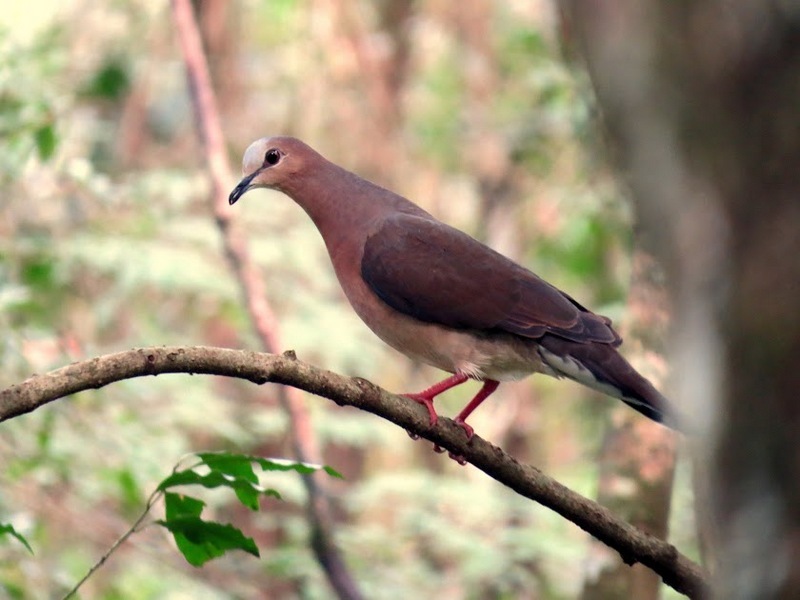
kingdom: Animalia
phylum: Chordata
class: Aves
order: Columbiformes
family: Columbidae
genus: Leptotila
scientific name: Leptotila rufaxilla
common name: Grey-fronted dove
